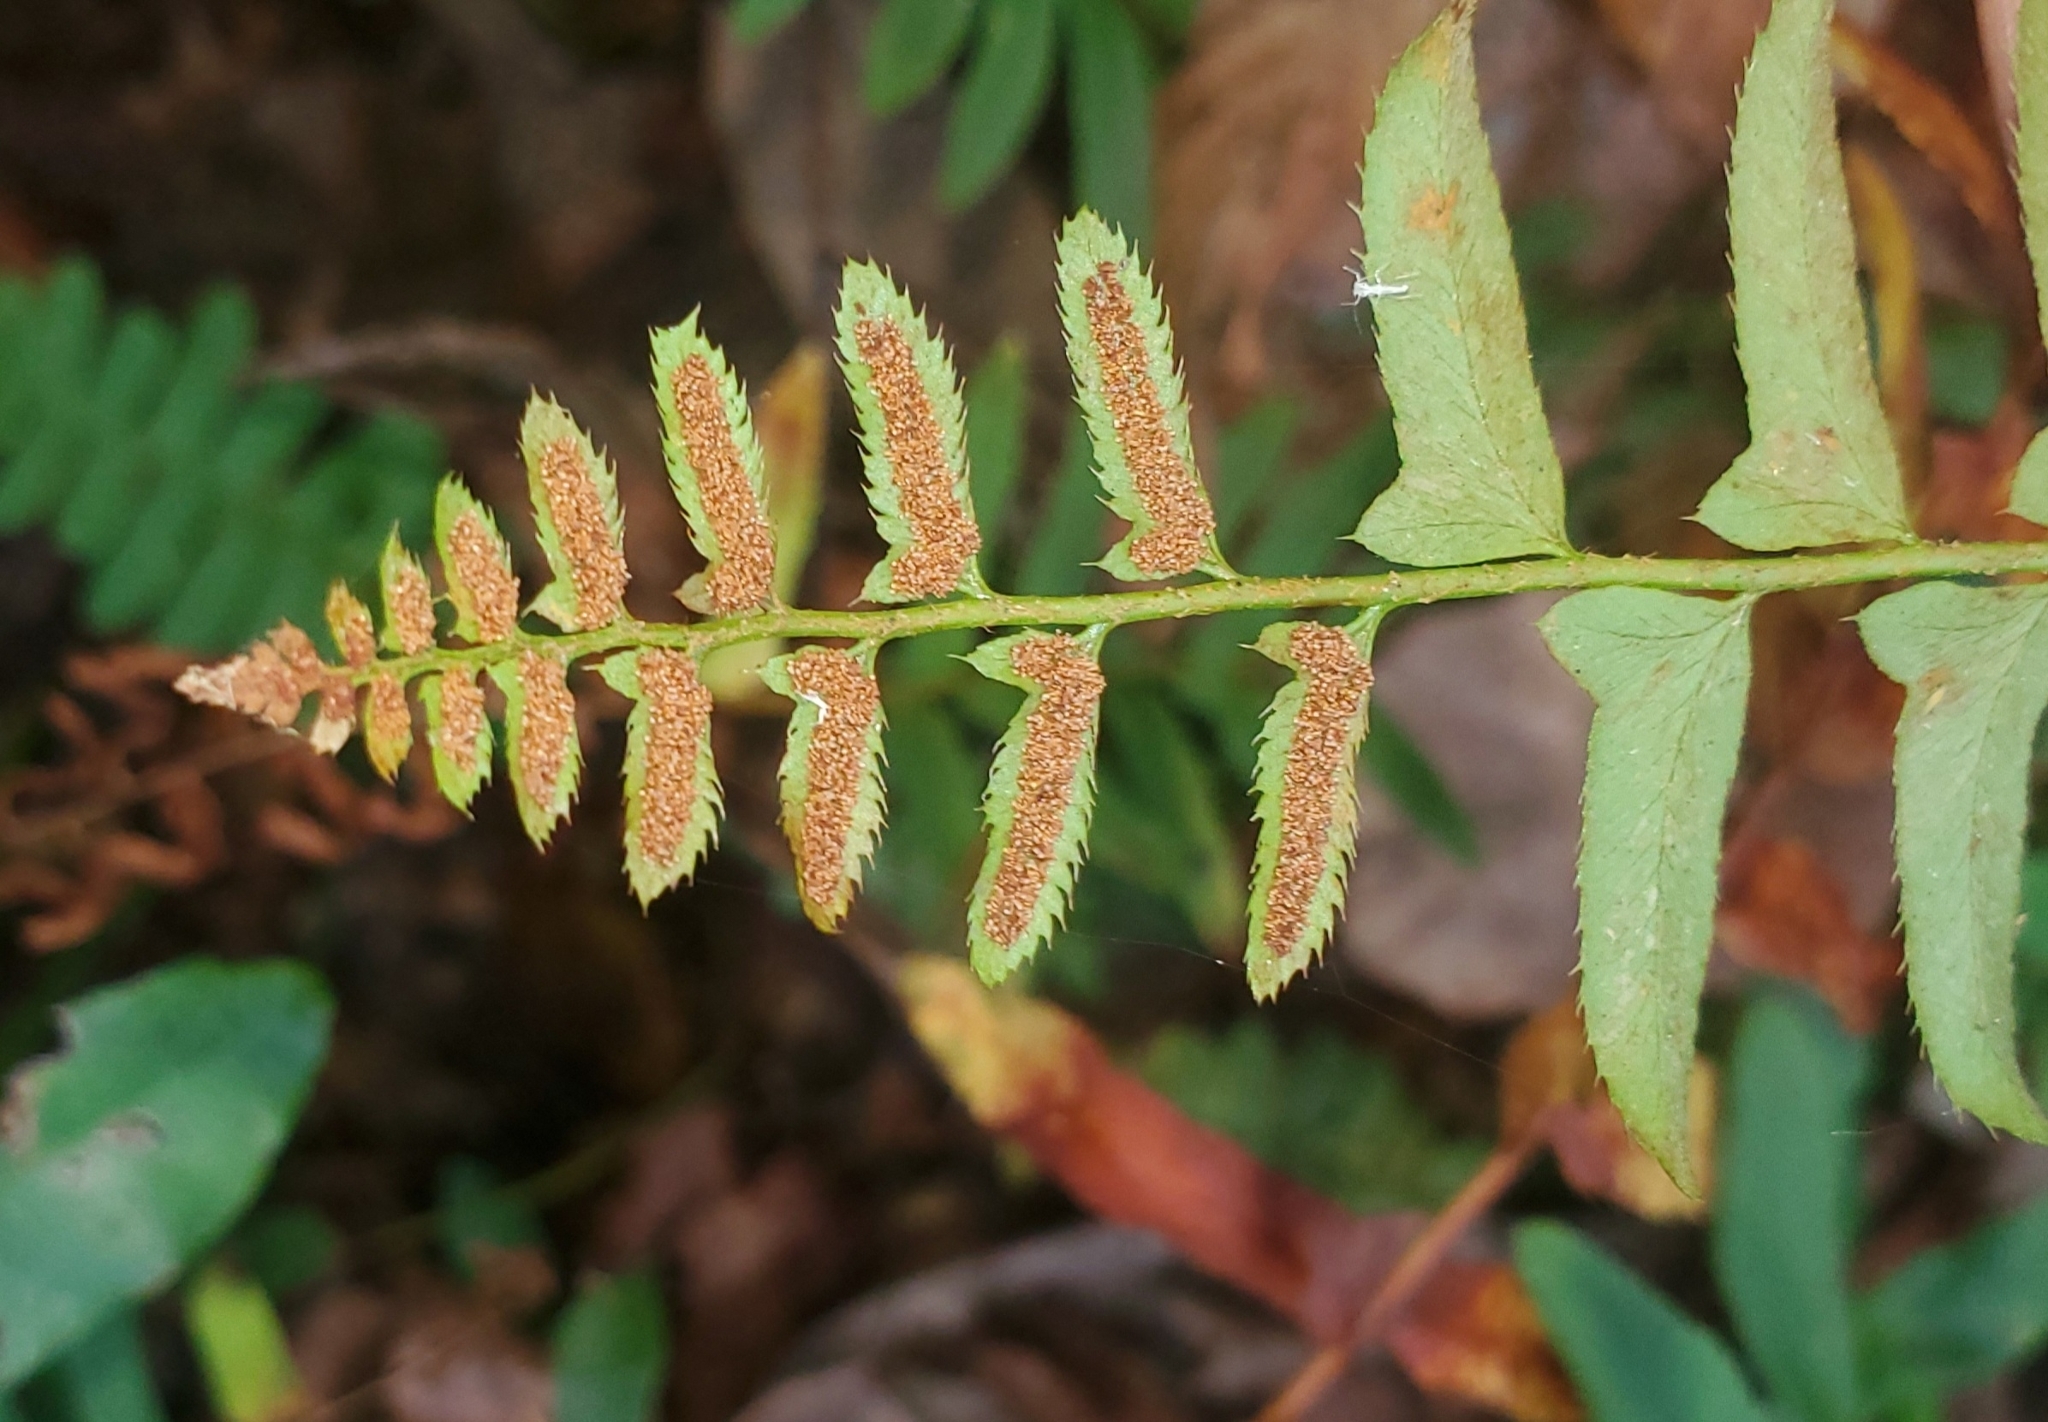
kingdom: Plantae
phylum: Tracheophyta
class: Polypodiopsida
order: Polypodiales
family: Dryopteridaceae
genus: Polystichum
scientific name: Polystichum acrostichoides
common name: Christmas fern
